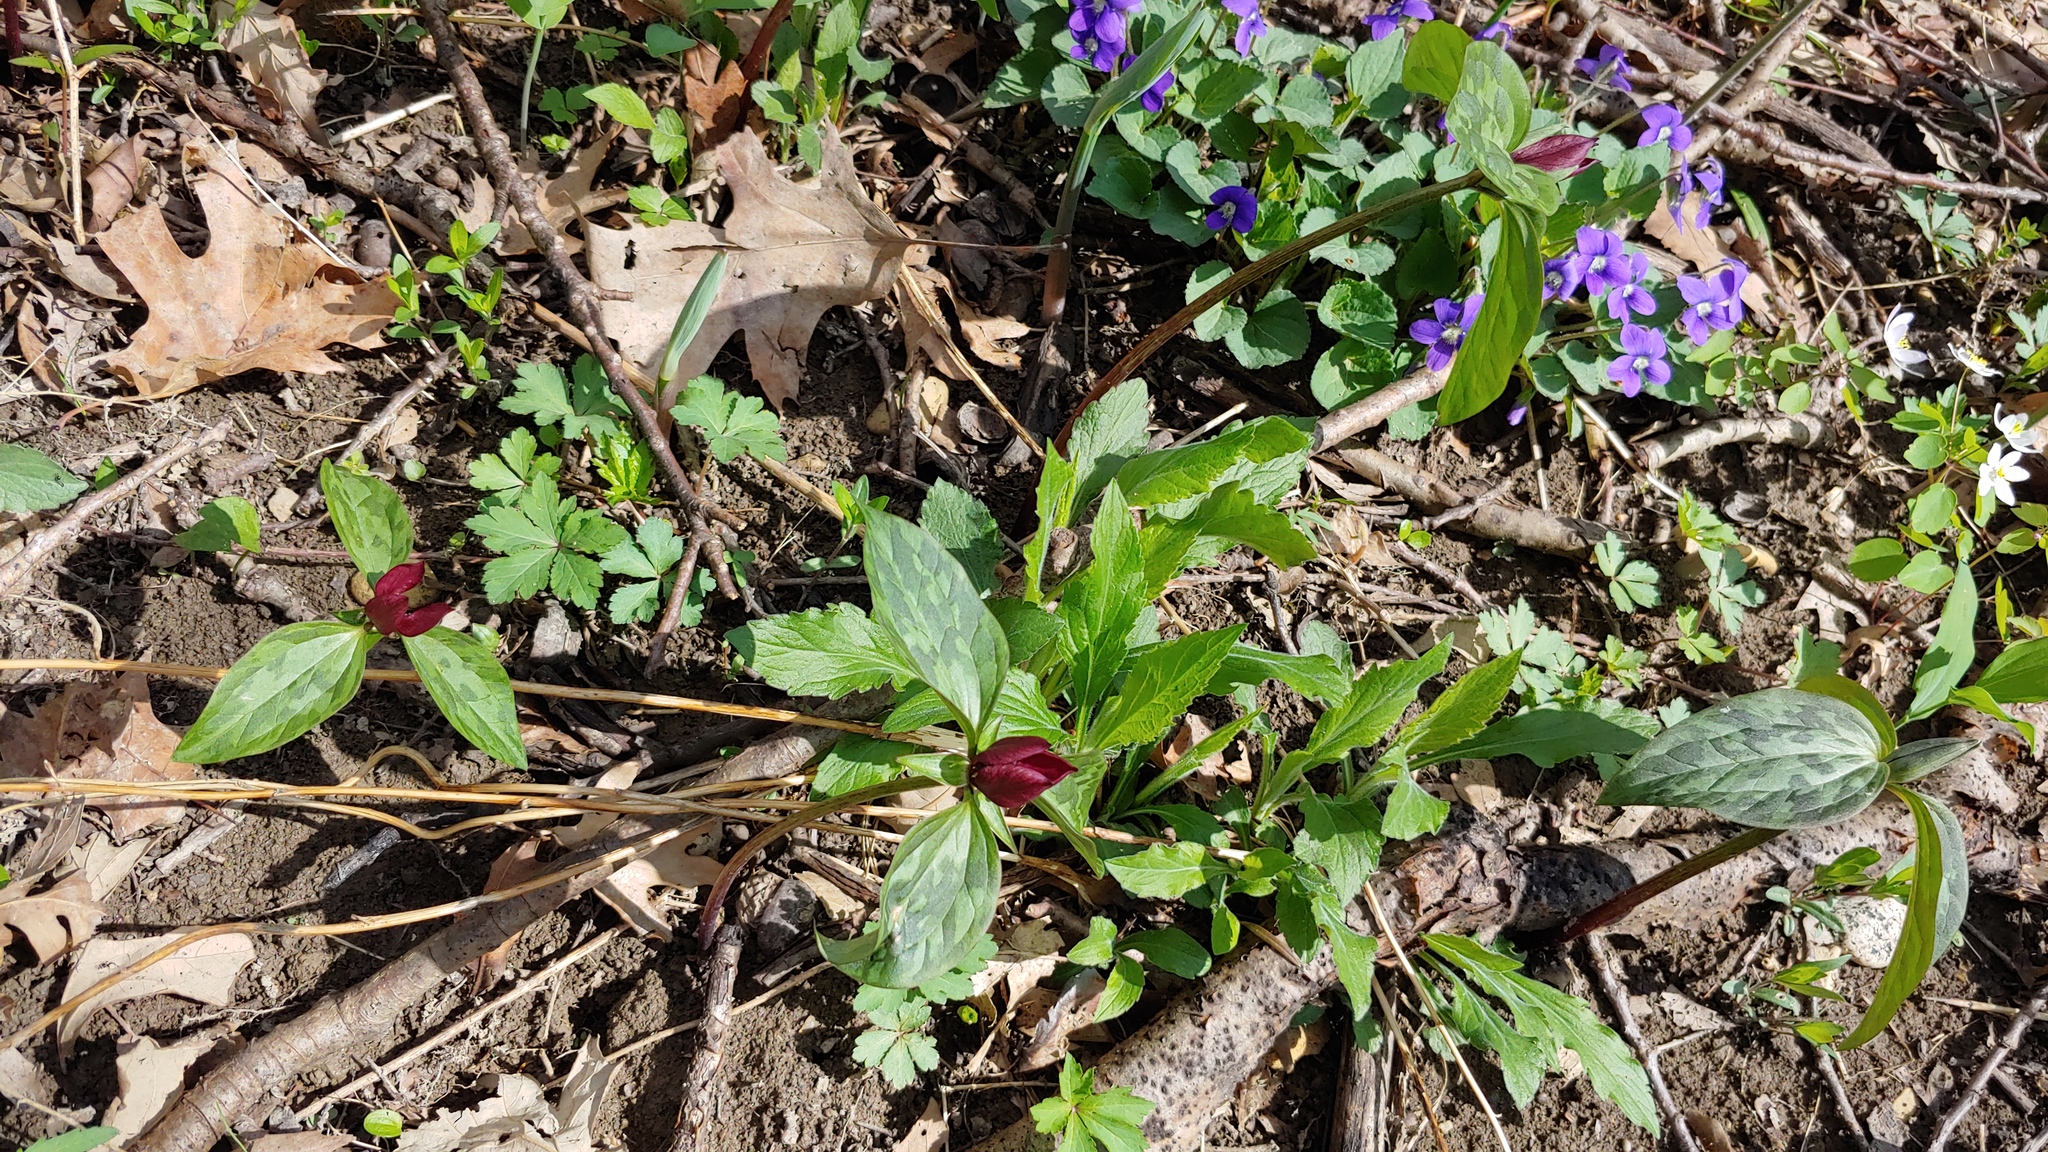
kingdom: Plantae
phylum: Tracheophyta
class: Liliopsida
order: Liliales
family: Melanthiaceae
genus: Trillium
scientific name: Trillium recurvatum
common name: Bloody butcher
